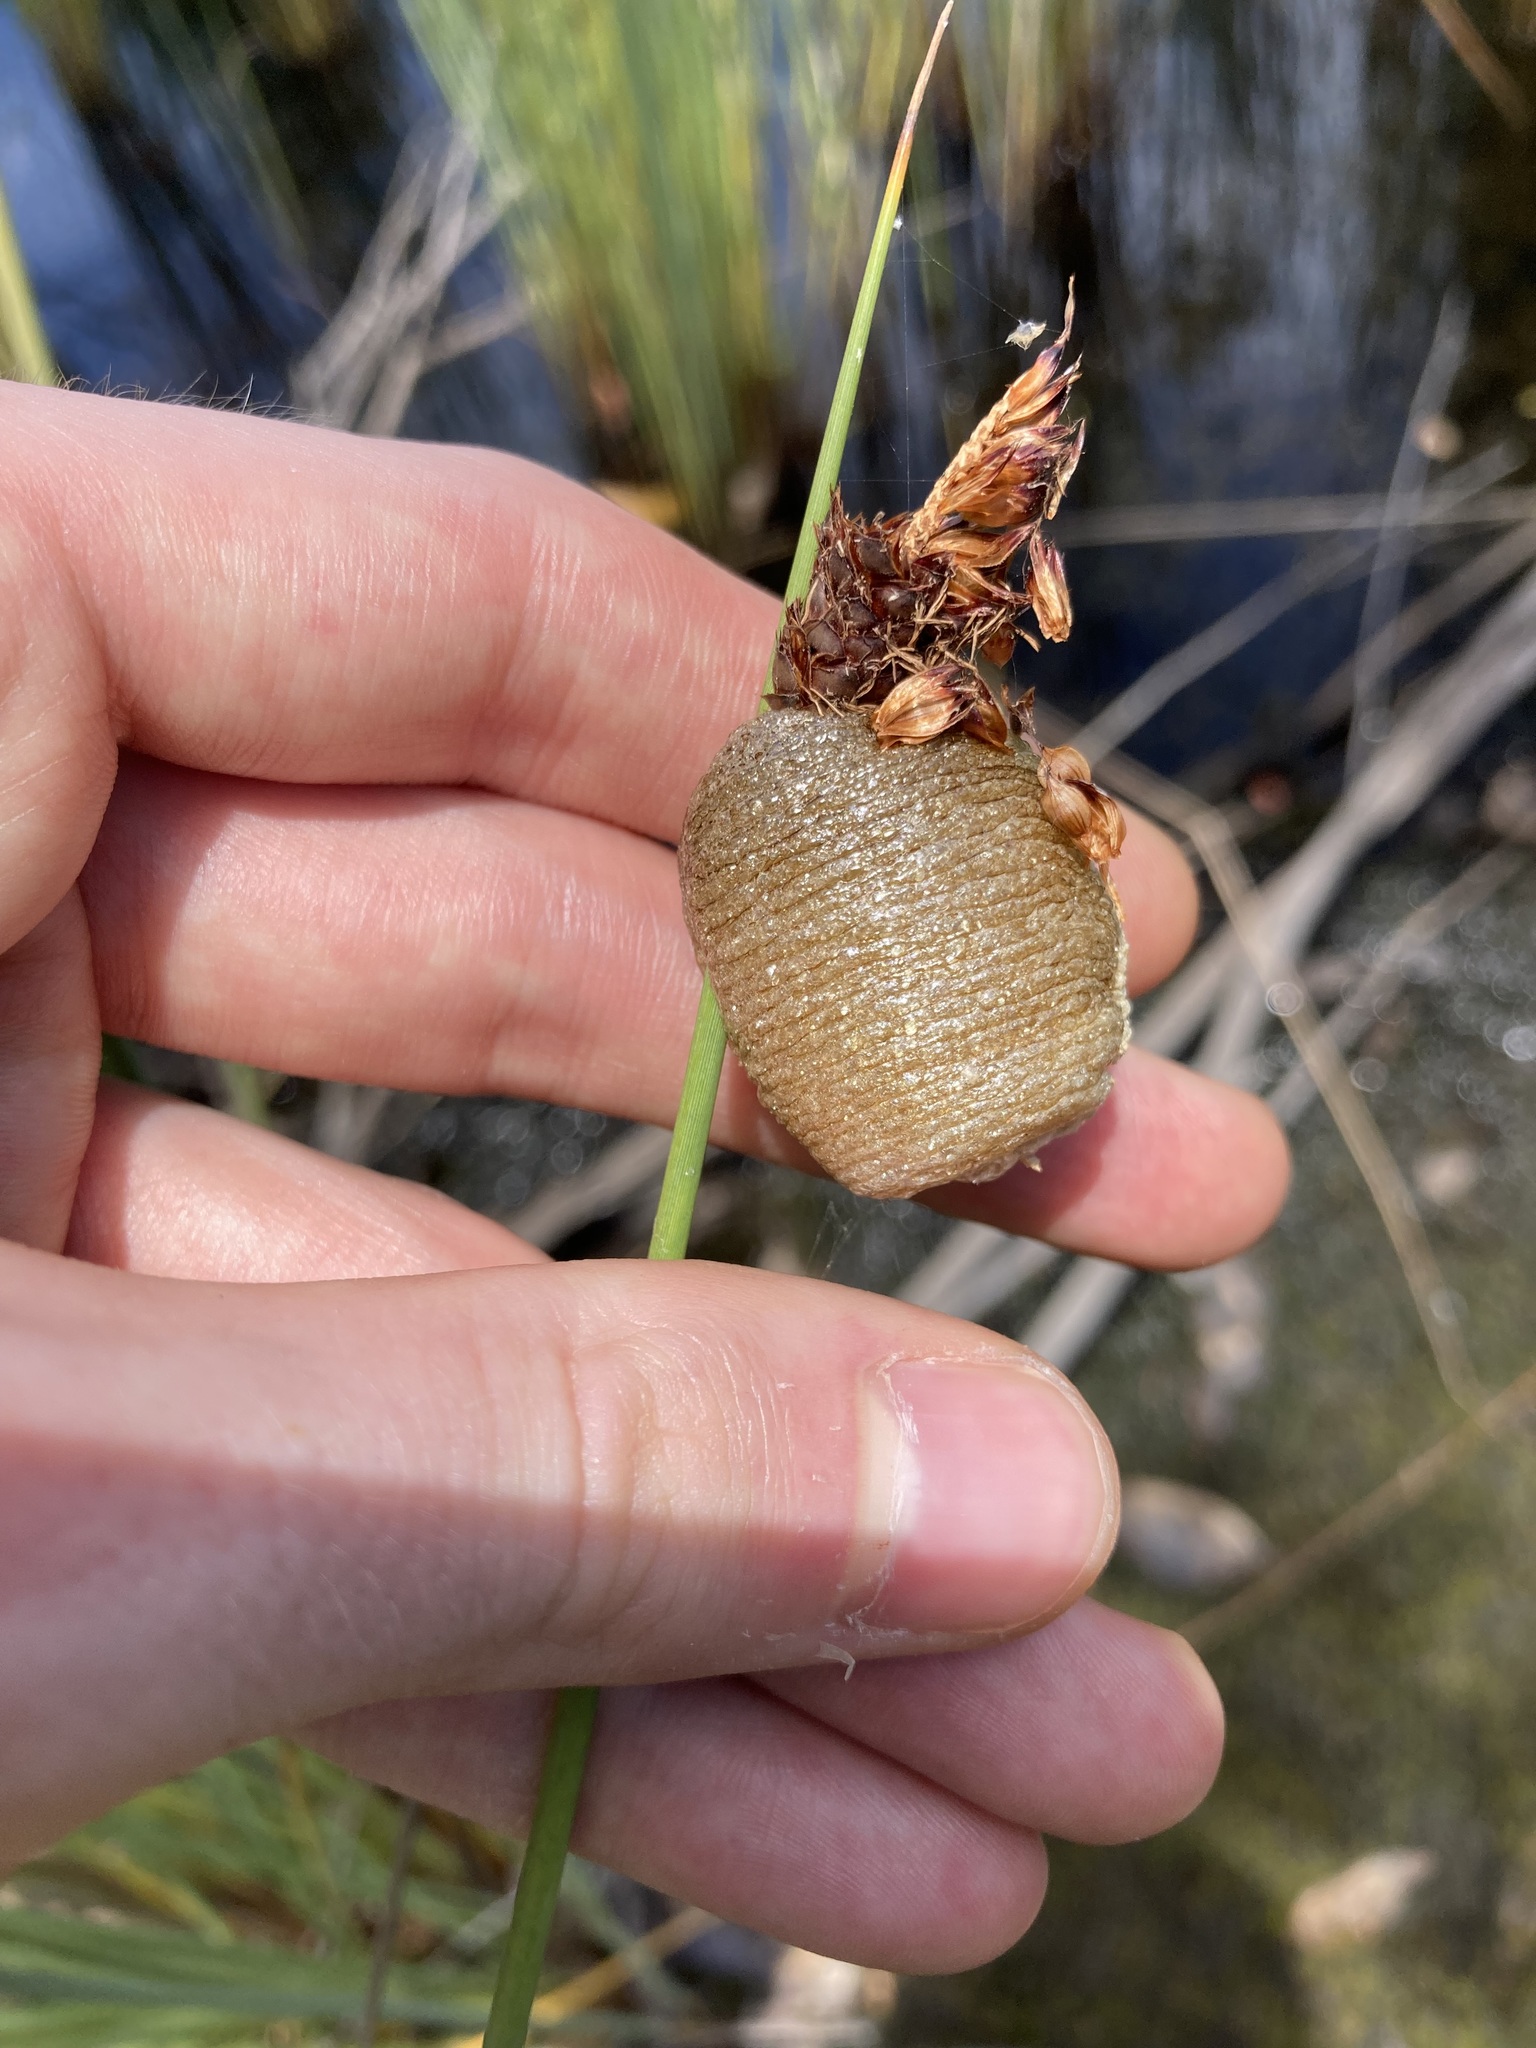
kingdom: Animalia
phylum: Arthropoda
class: Insecta
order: Mantodea
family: Mantidae
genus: Archimantis
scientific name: Archimantis latistyla
